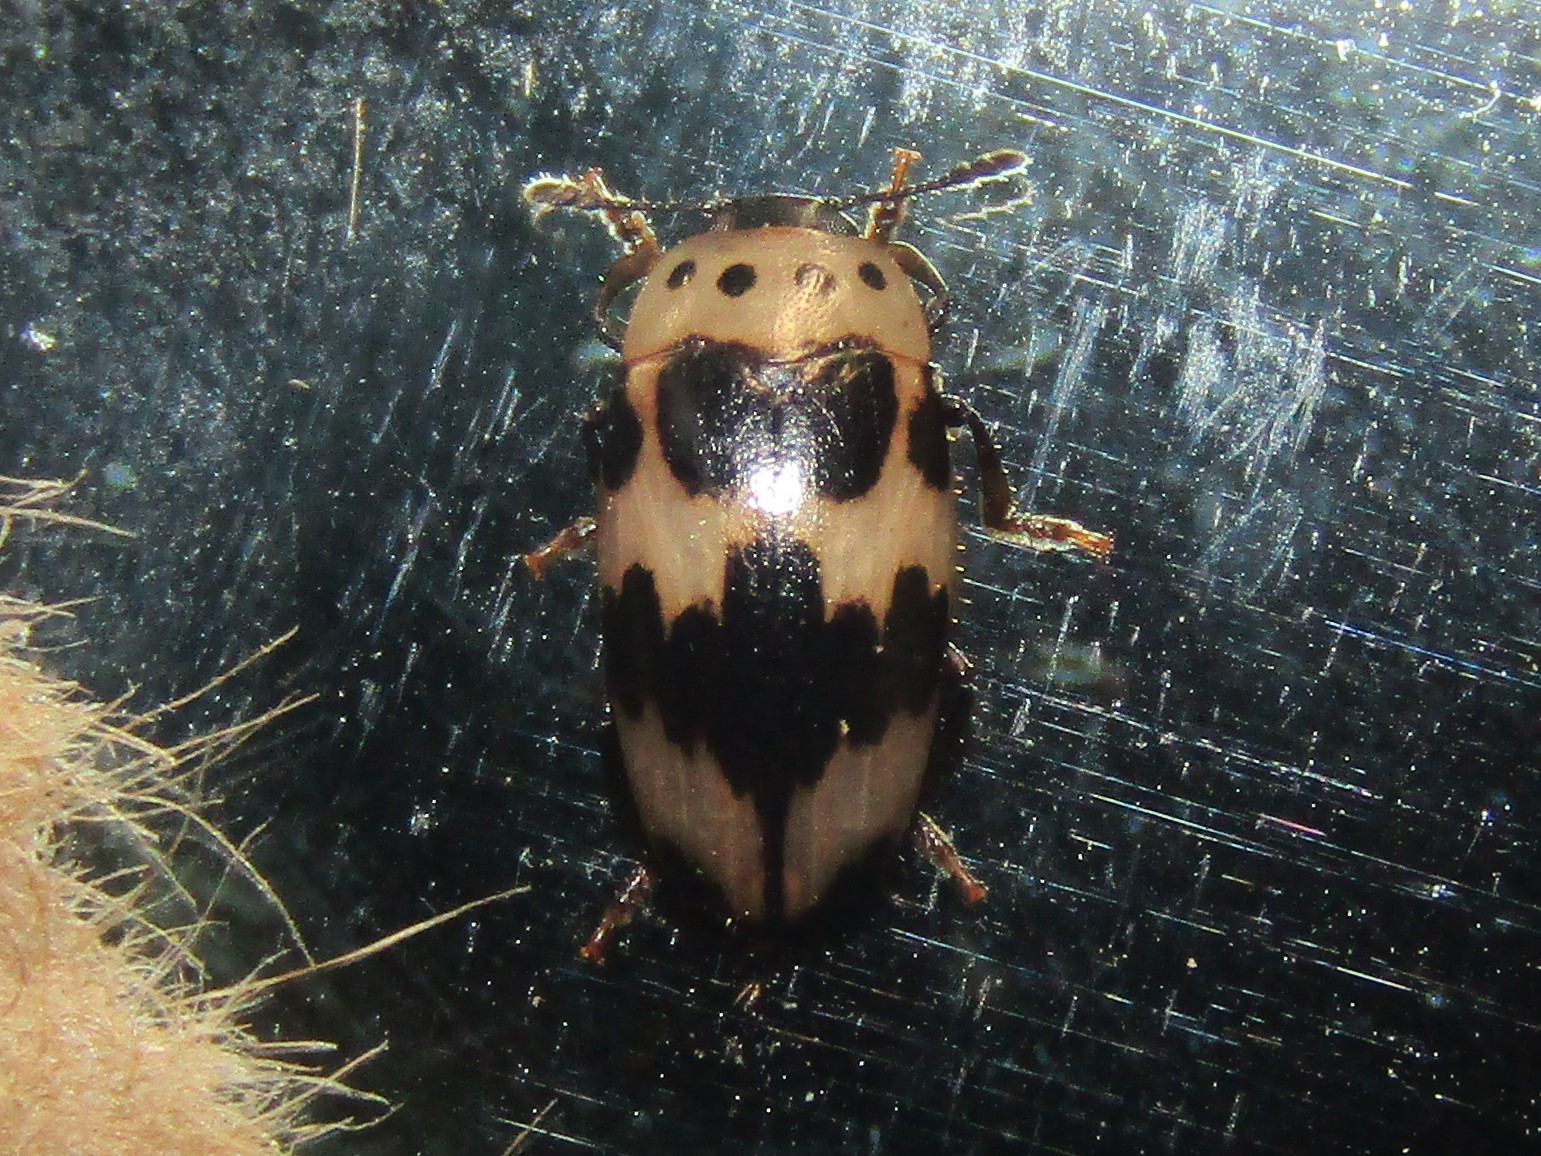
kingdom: Animalia
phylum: Arthropoda
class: Insecta
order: Coleoptera
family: Erotylidae
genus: Ischyrus
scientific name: Ischyrus quadripunctatus
